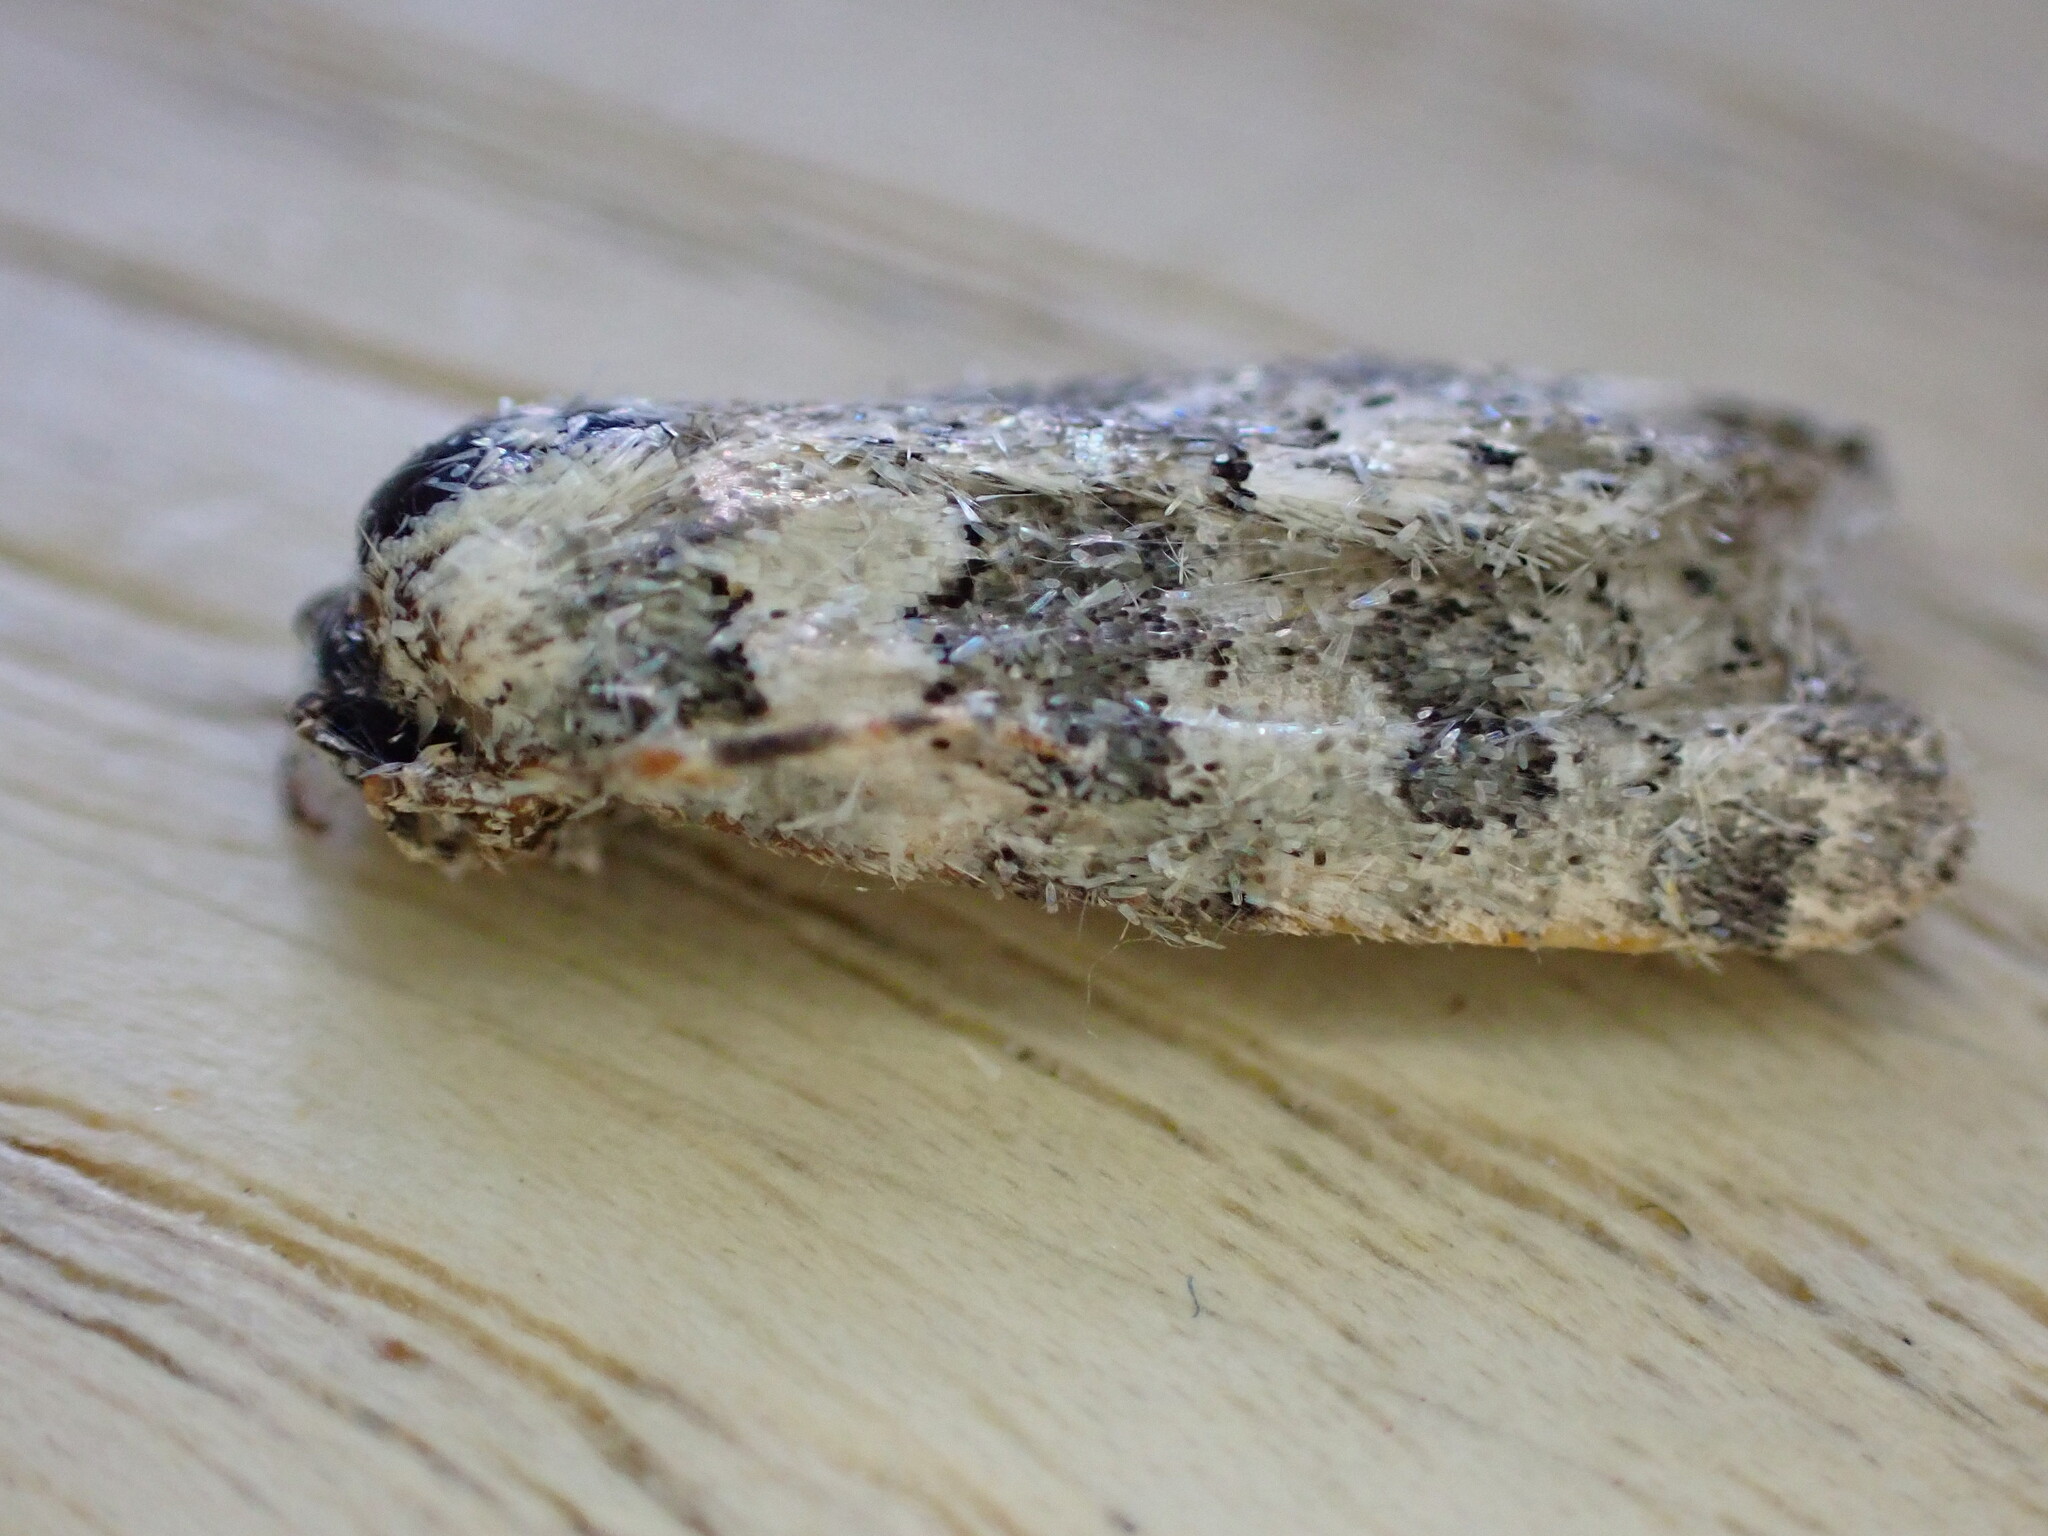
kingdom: Animalia
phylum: Arthropoda
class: Insecta
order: Lepidoptera
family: Noctuidae
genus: Bryophila
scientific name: Bryophila domestica
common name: Marbled beauty
